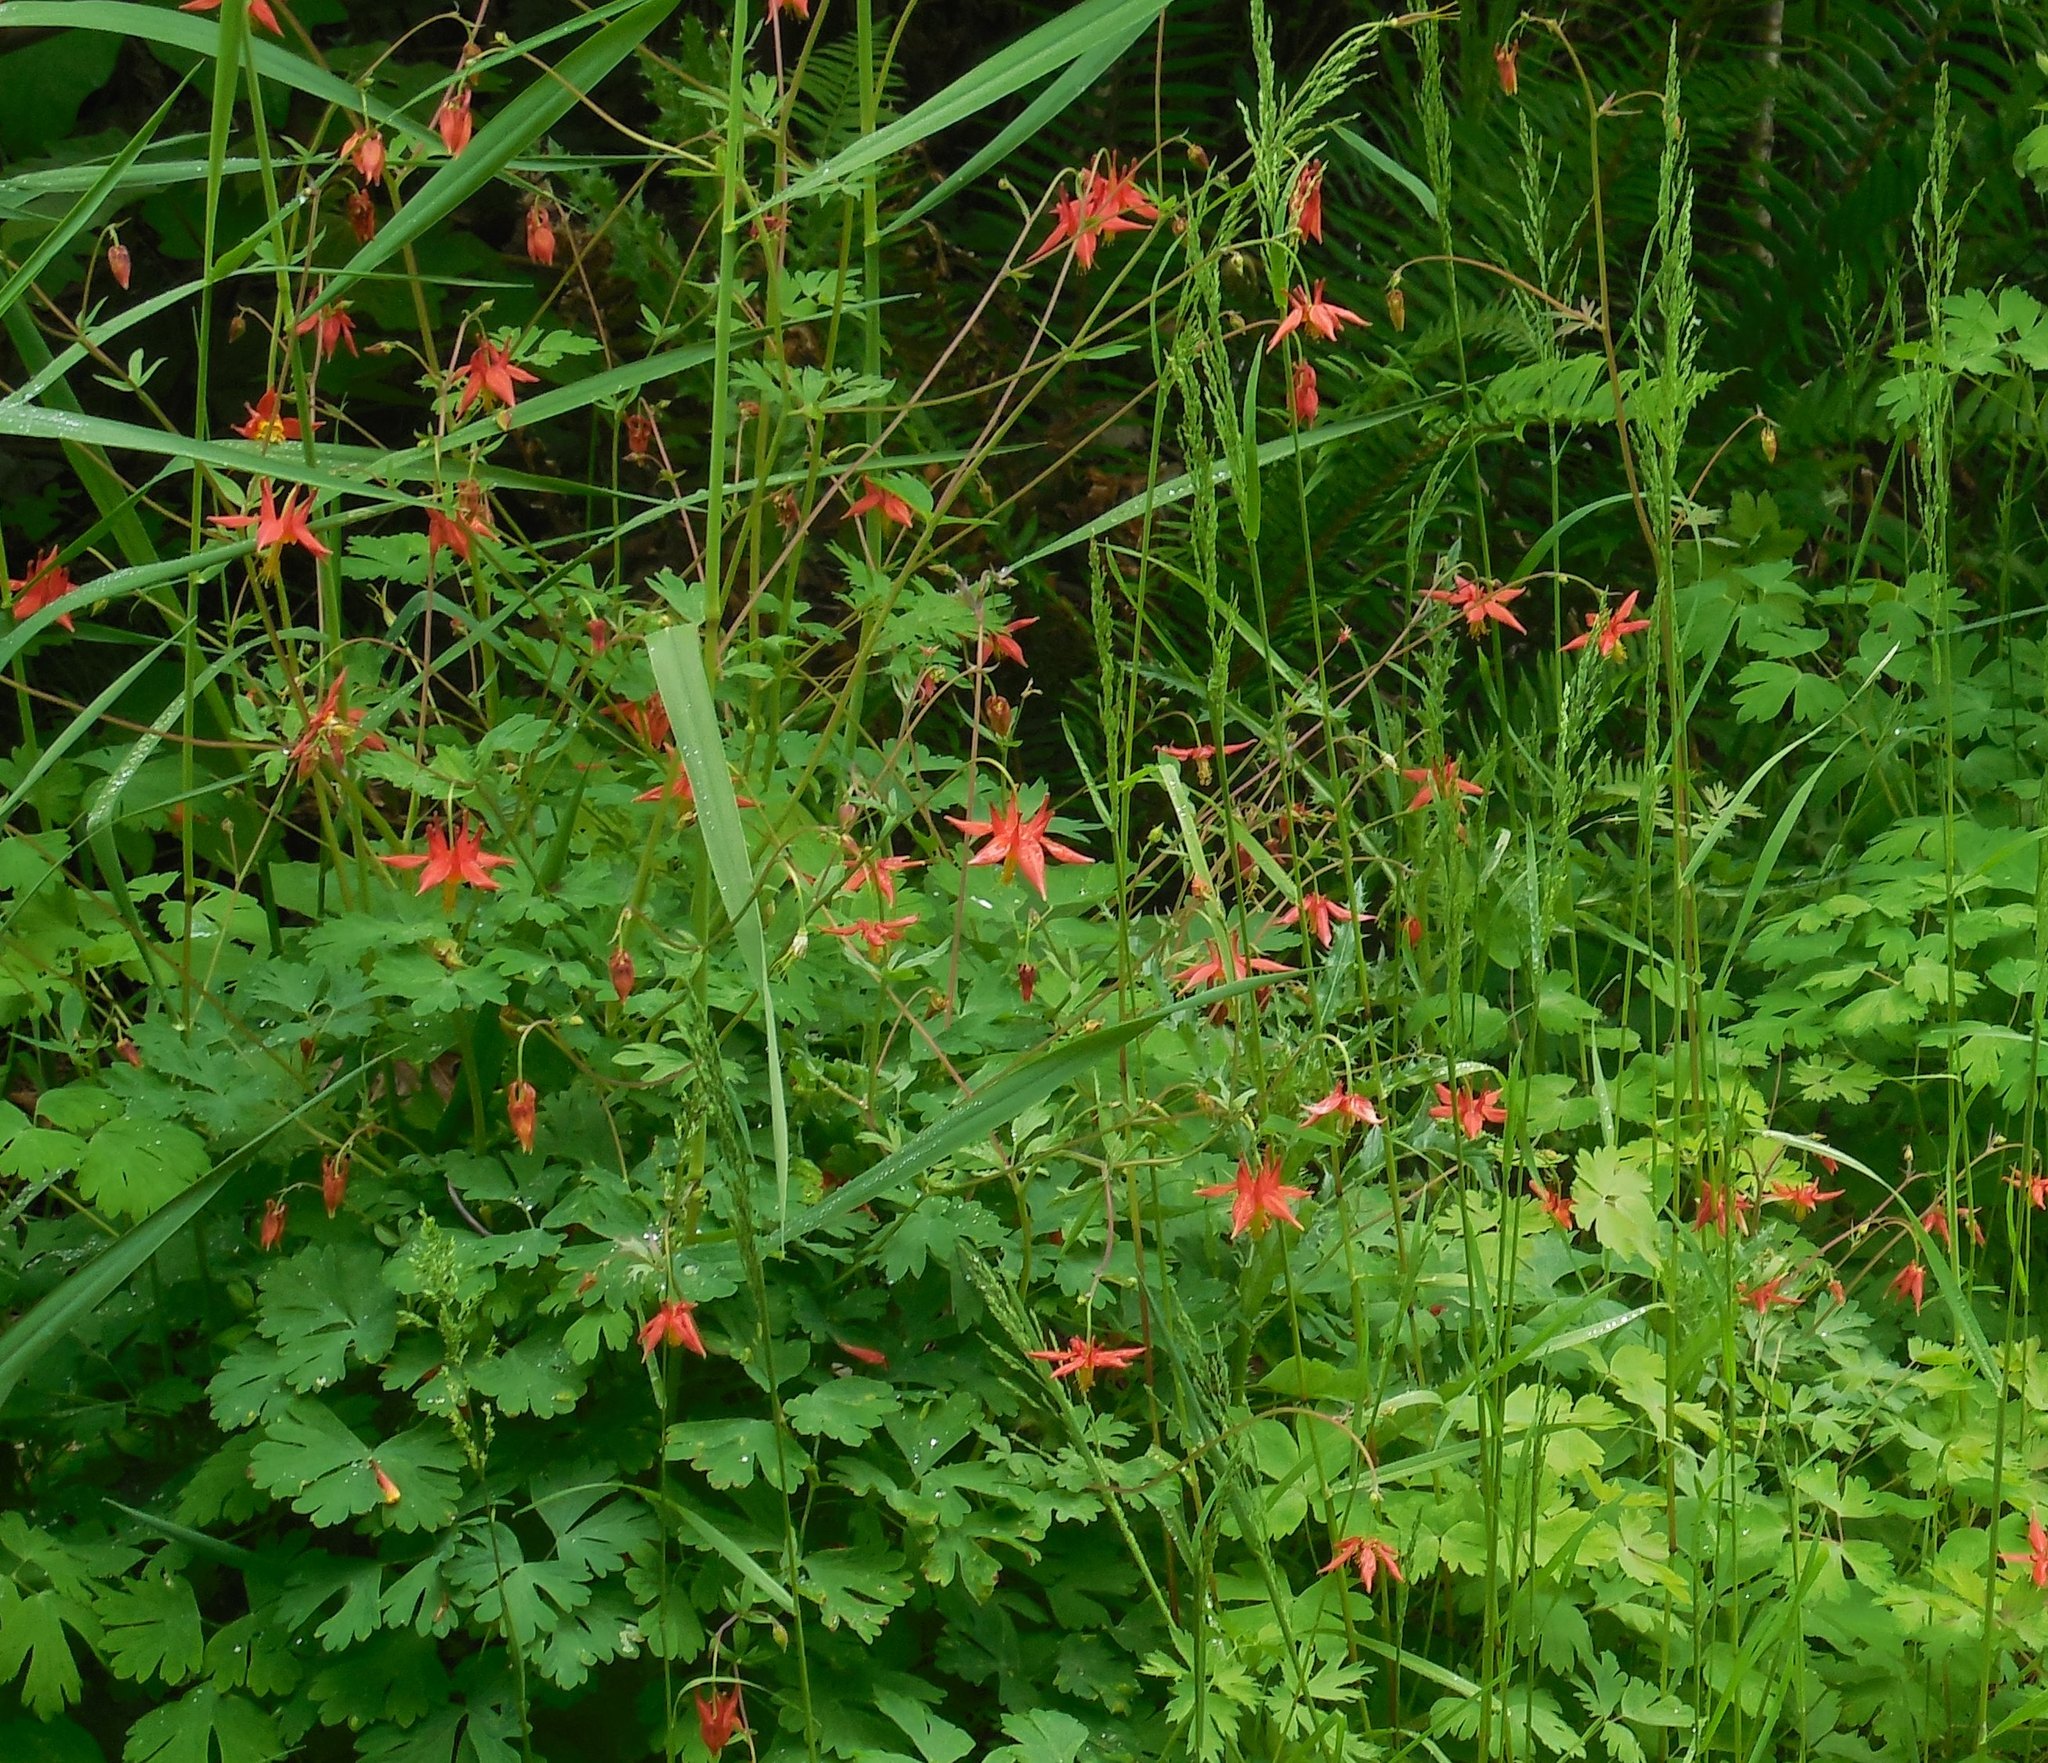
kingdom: Plantae
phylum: Tracheophyta
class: Magnoliopsida
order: Ranunculales
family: Ranunculaceae
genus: Aquilegia
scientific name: Aquilegia formosa
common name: Sitka columbine
